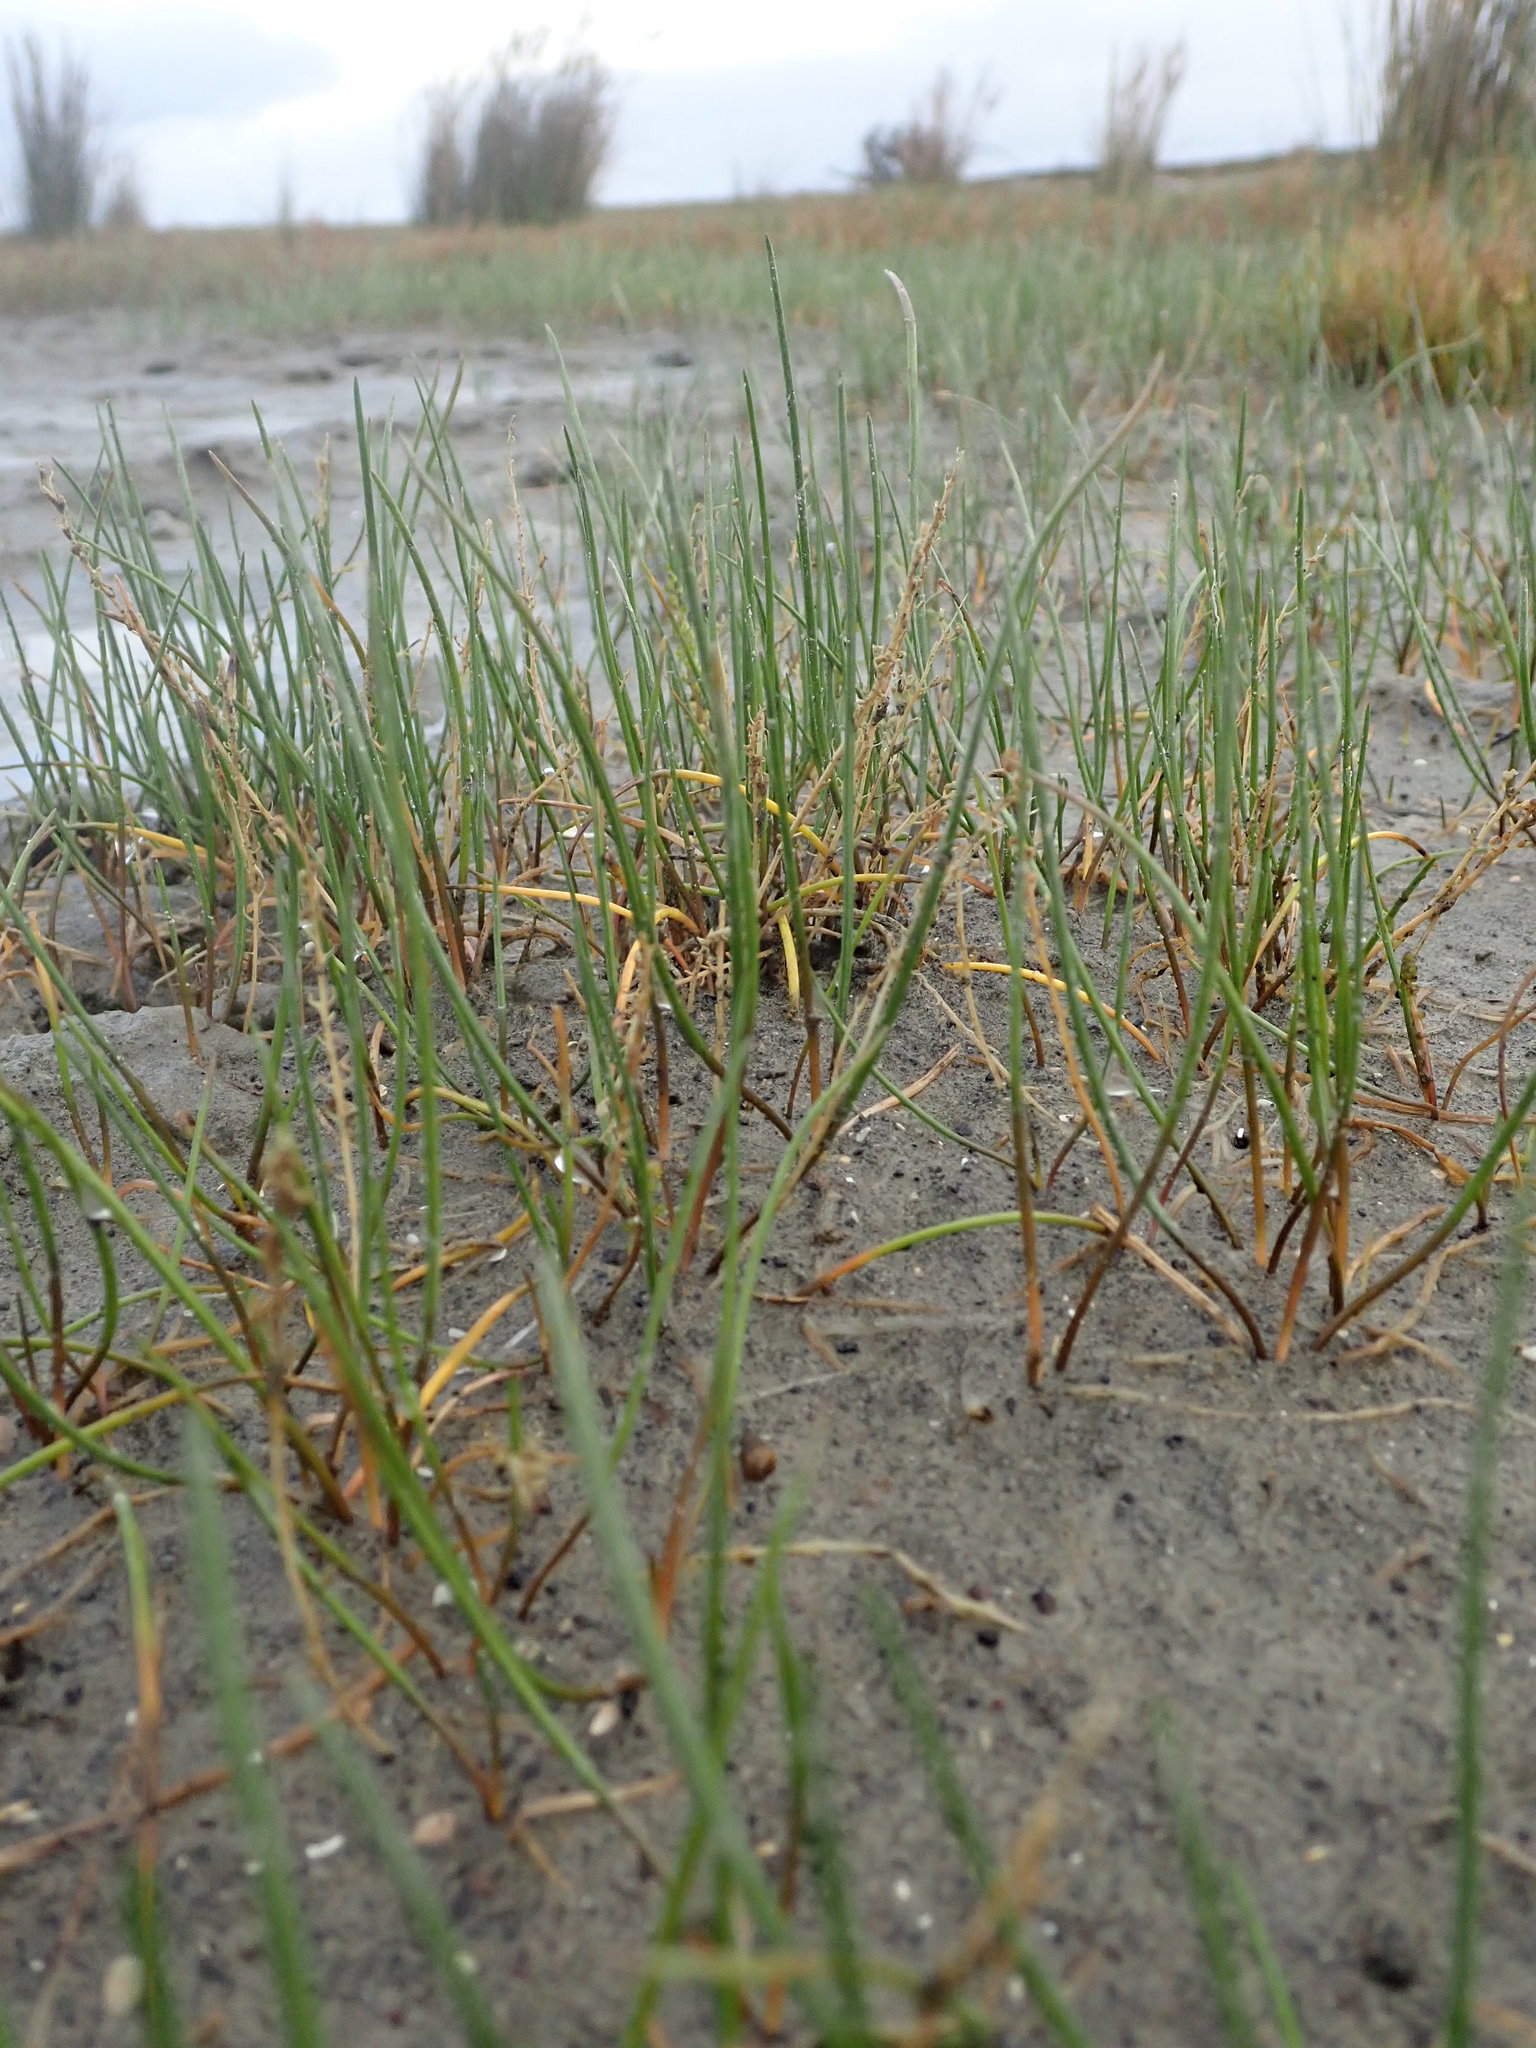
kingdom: Plantae
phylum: Tracheophyta
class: Liliopsida
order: Alismatales
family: Juncaginaceae
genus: Triglochin
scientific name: Triglochin striata
